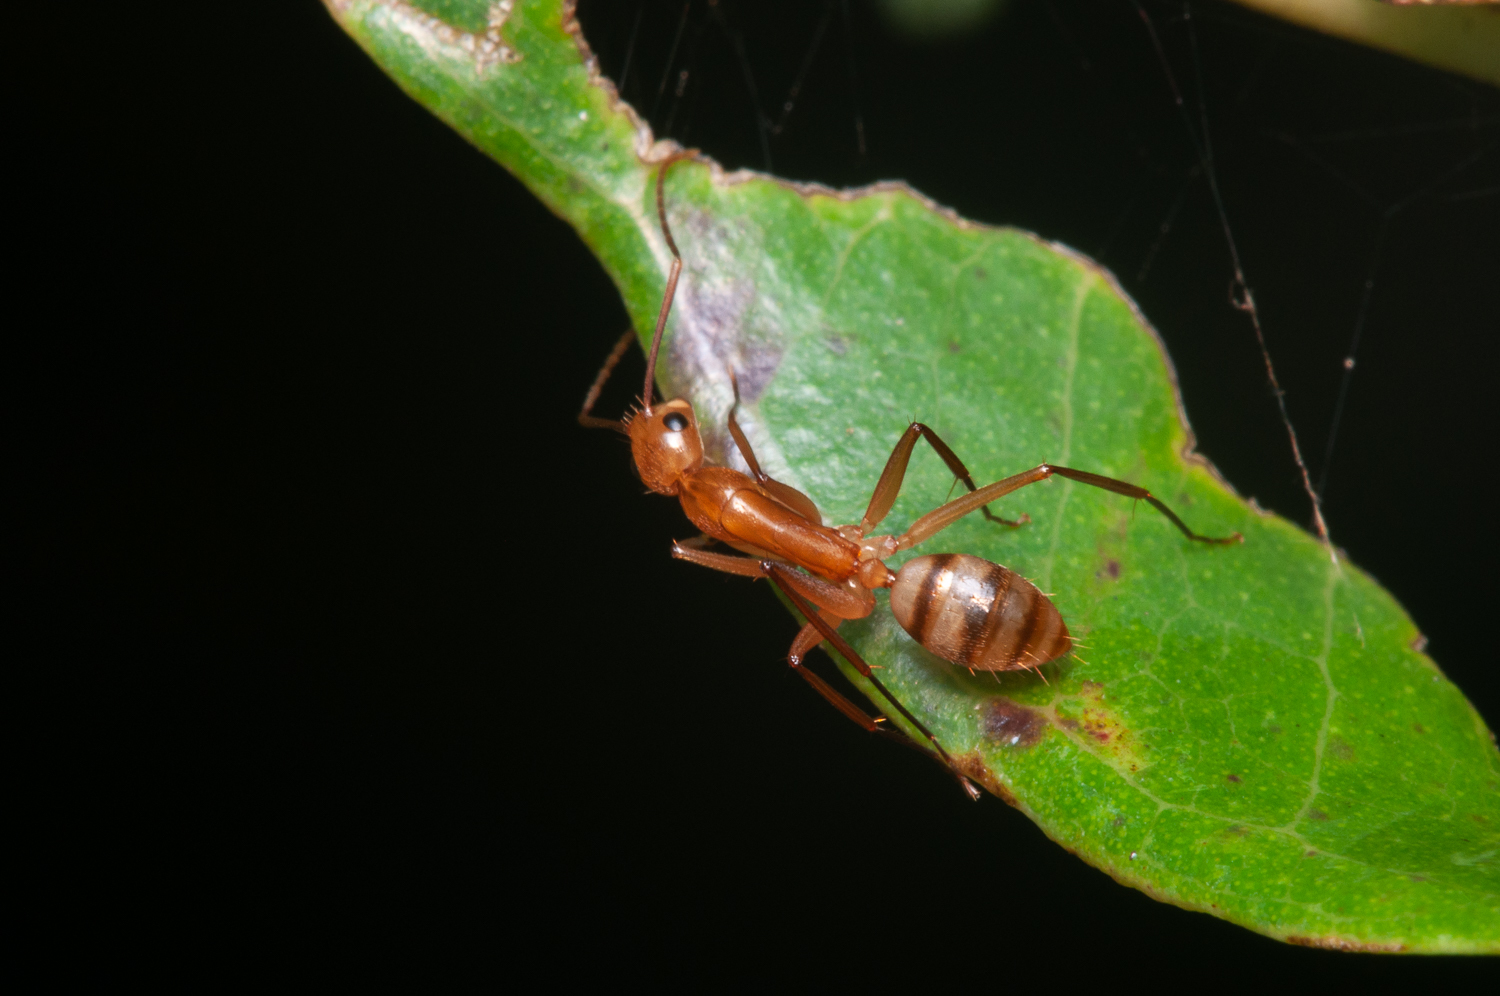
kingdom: Animalia
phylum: Arthropoda
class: Insecta
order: Hymenoptera
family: Formicidae
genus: Camponotus
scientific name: Camponotus
